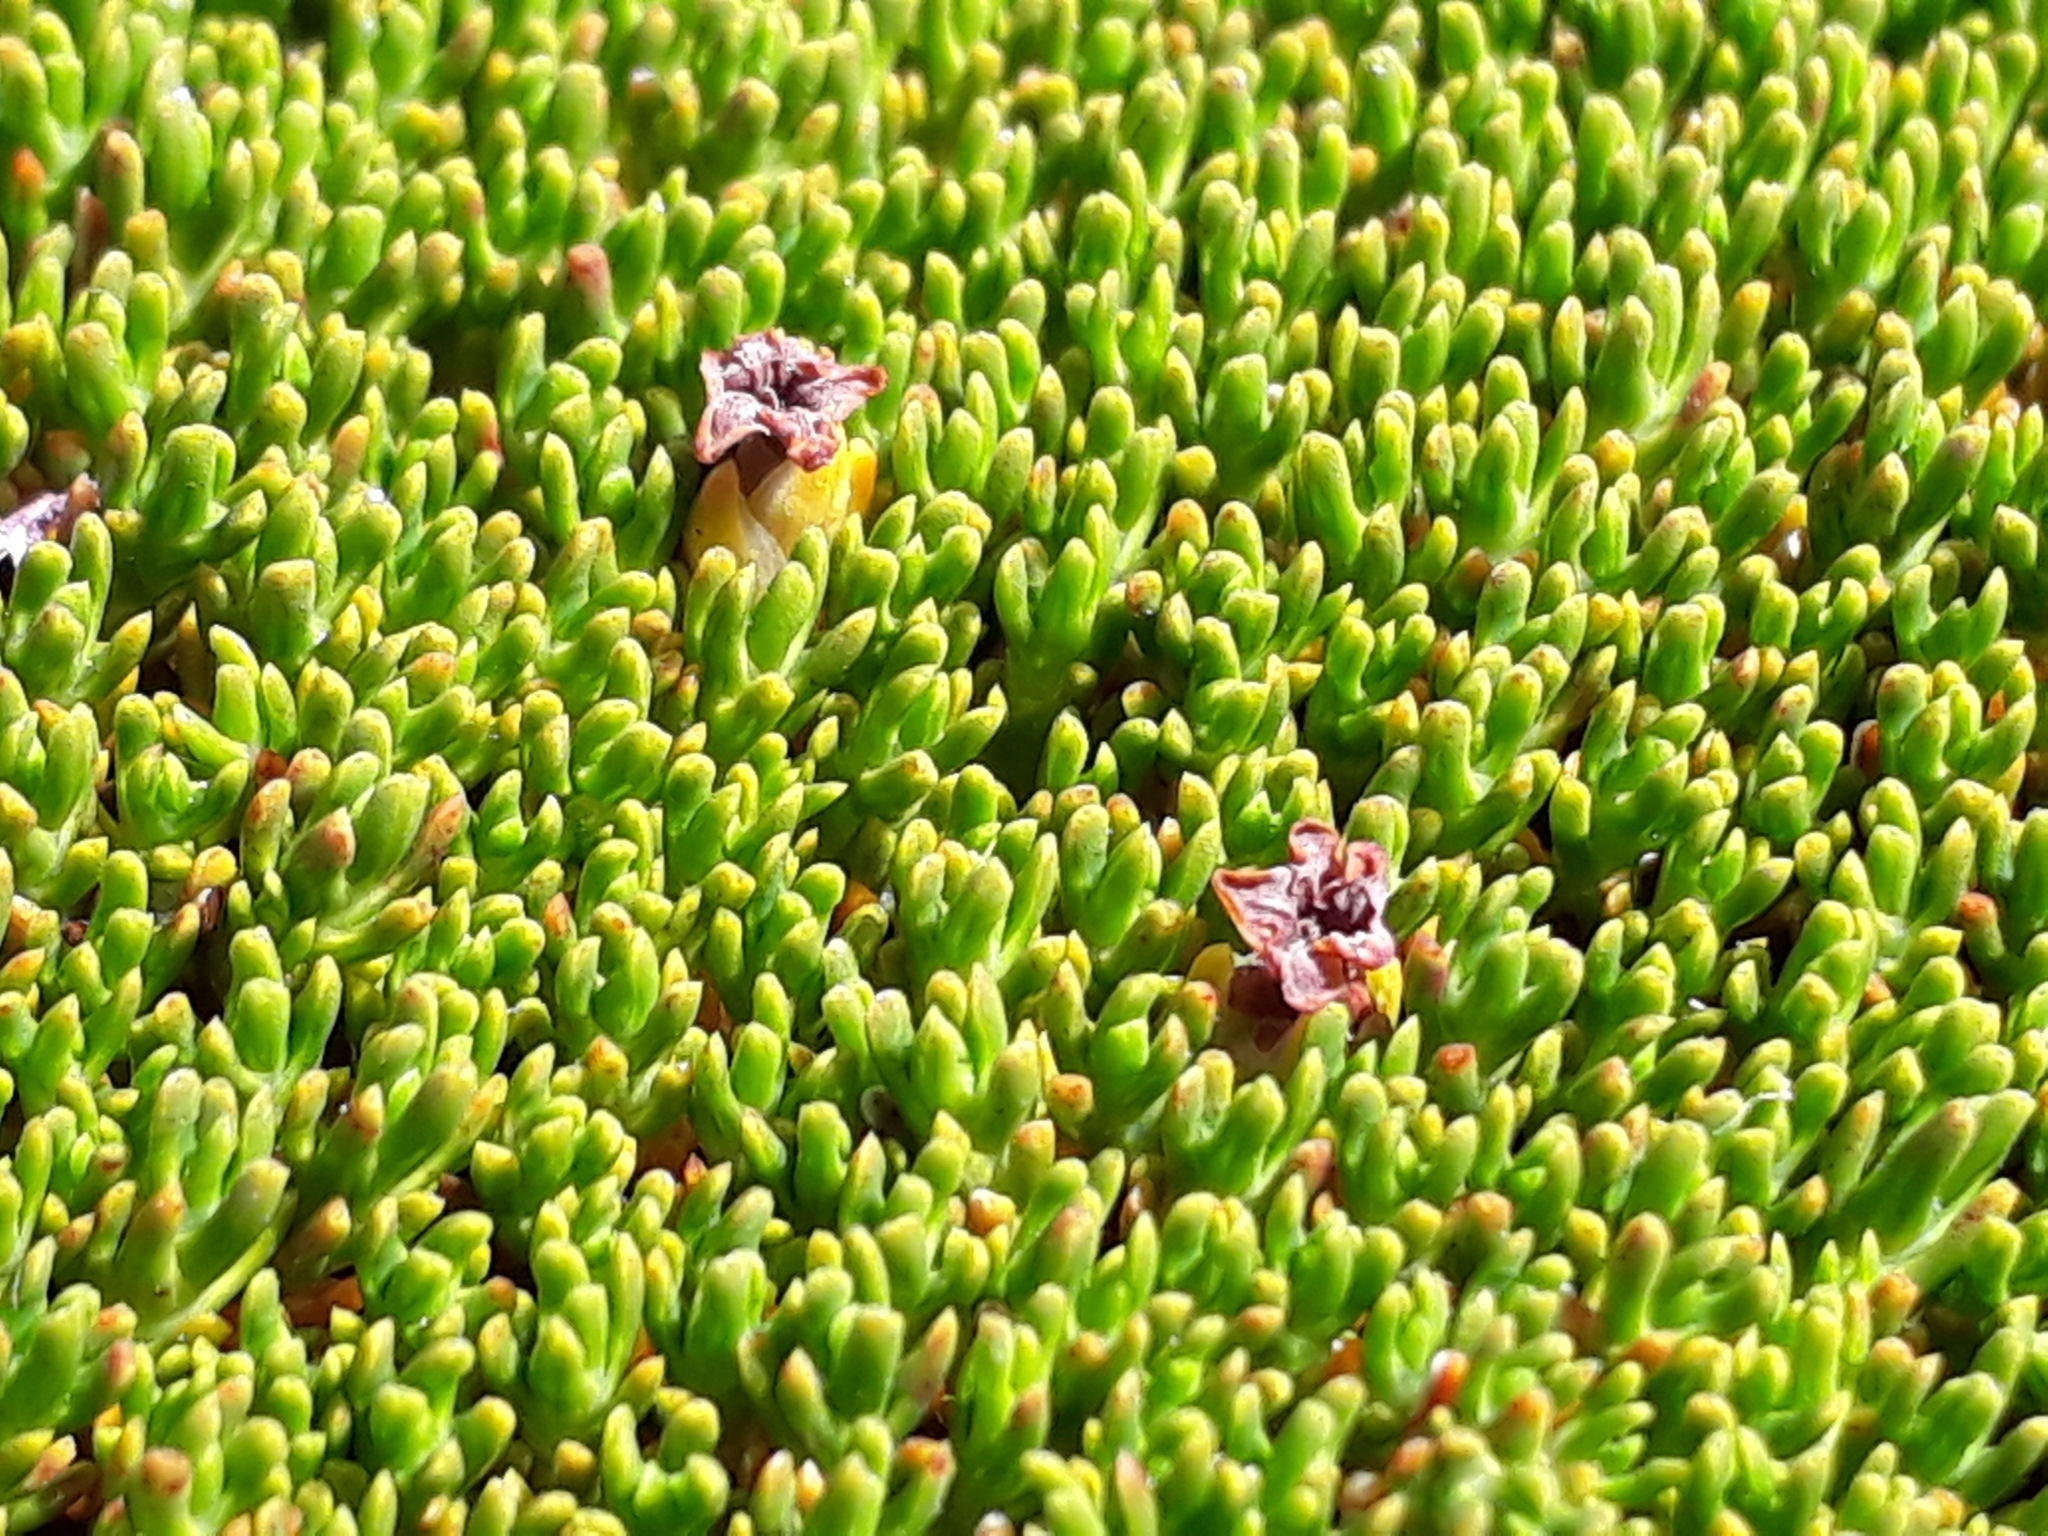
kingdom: Plantae
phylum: Tracheophyta
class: Magnoliopsida
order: Ericales
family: Ericaceae
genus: Dracophyllum
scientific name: Dracophyllum muscoides
